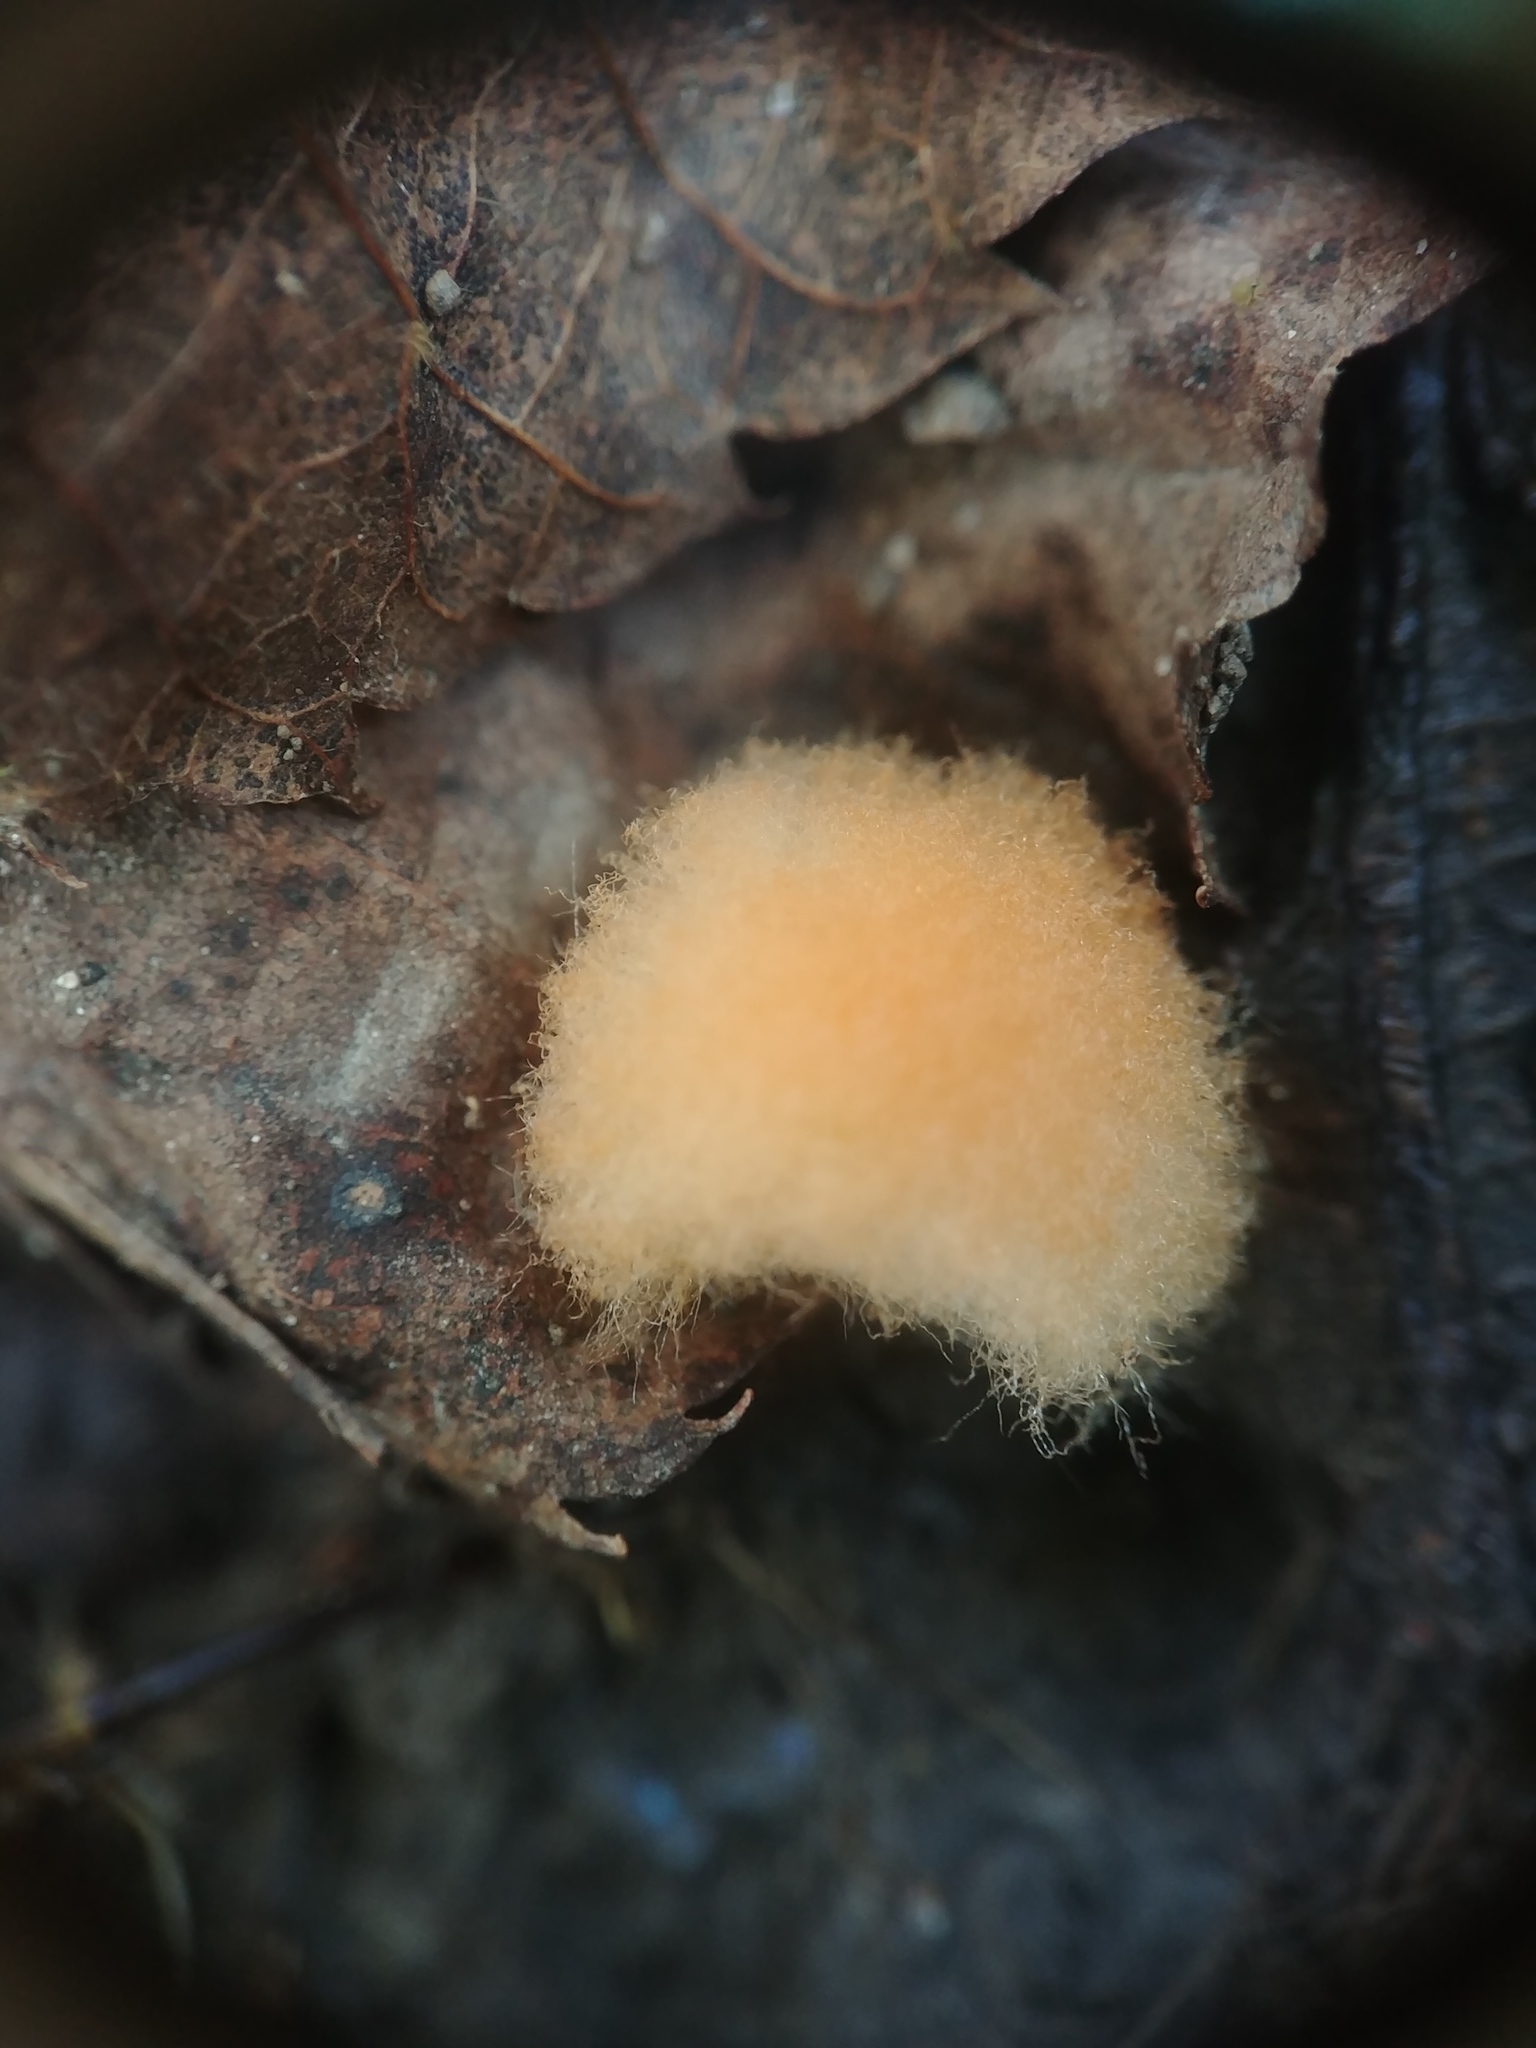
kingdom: Animalia
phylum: Arthropoda
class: Insecta
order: Hymenoptera
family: Cynipidae
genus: Callirhytis
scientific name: Callirhytis
